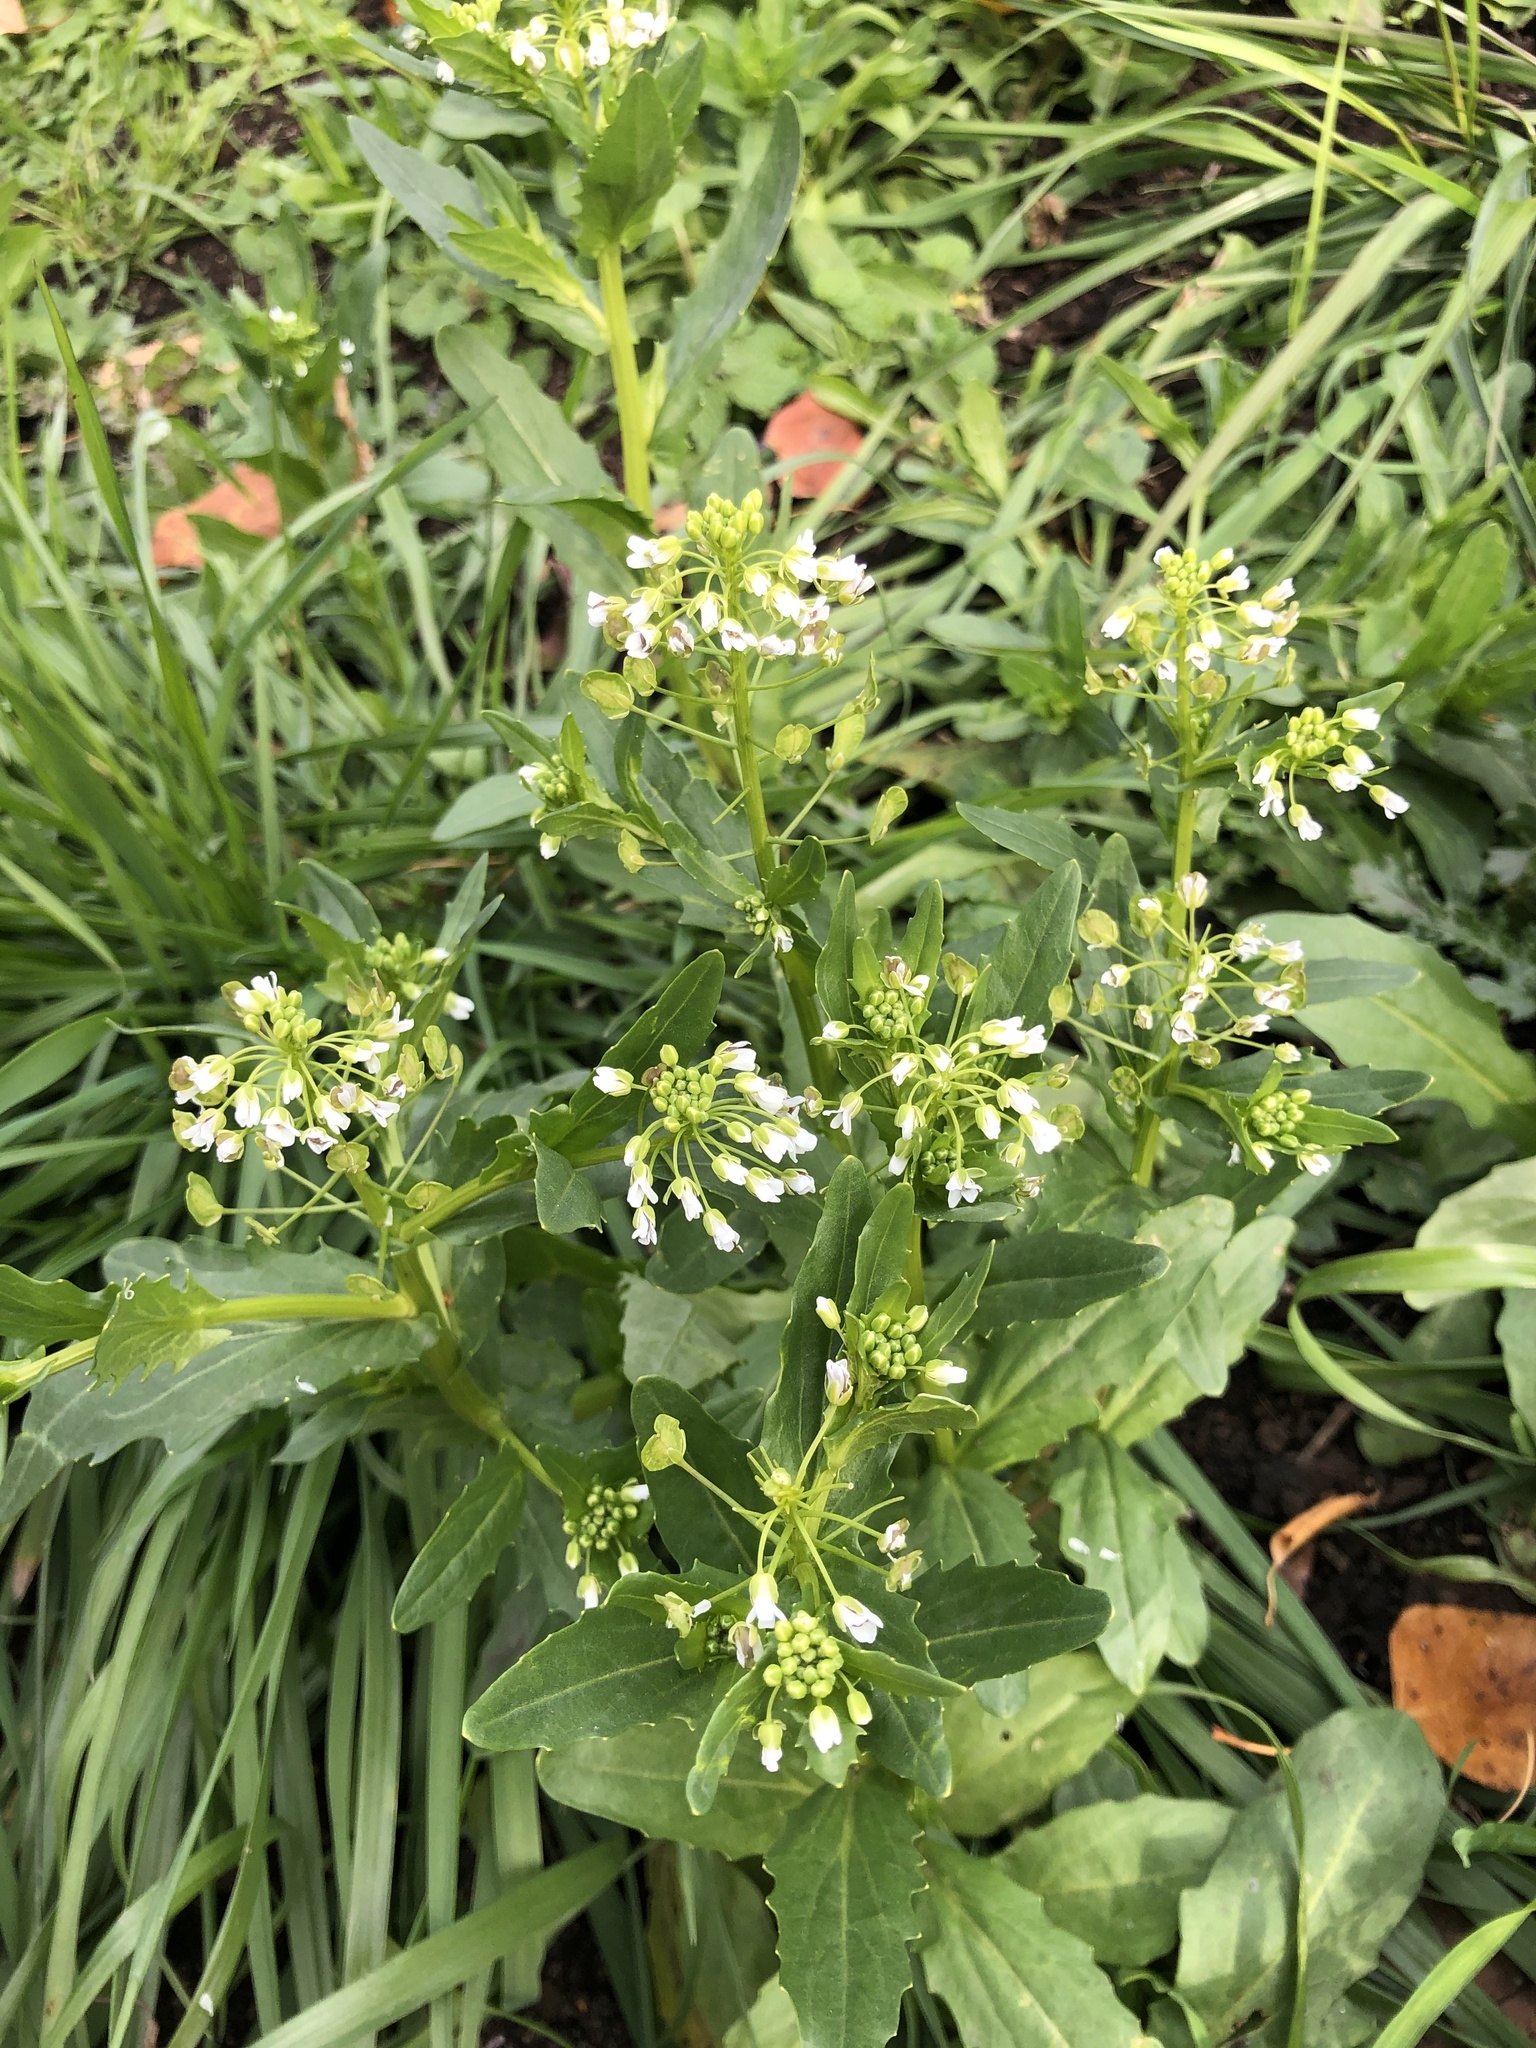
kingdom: Plantae
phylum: Tracheophyta
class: Magnoliopsida
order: Brassicales
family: Brassicaceae
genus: Thlaspi
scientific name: Thlaspi arvense
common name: Field pennycress
